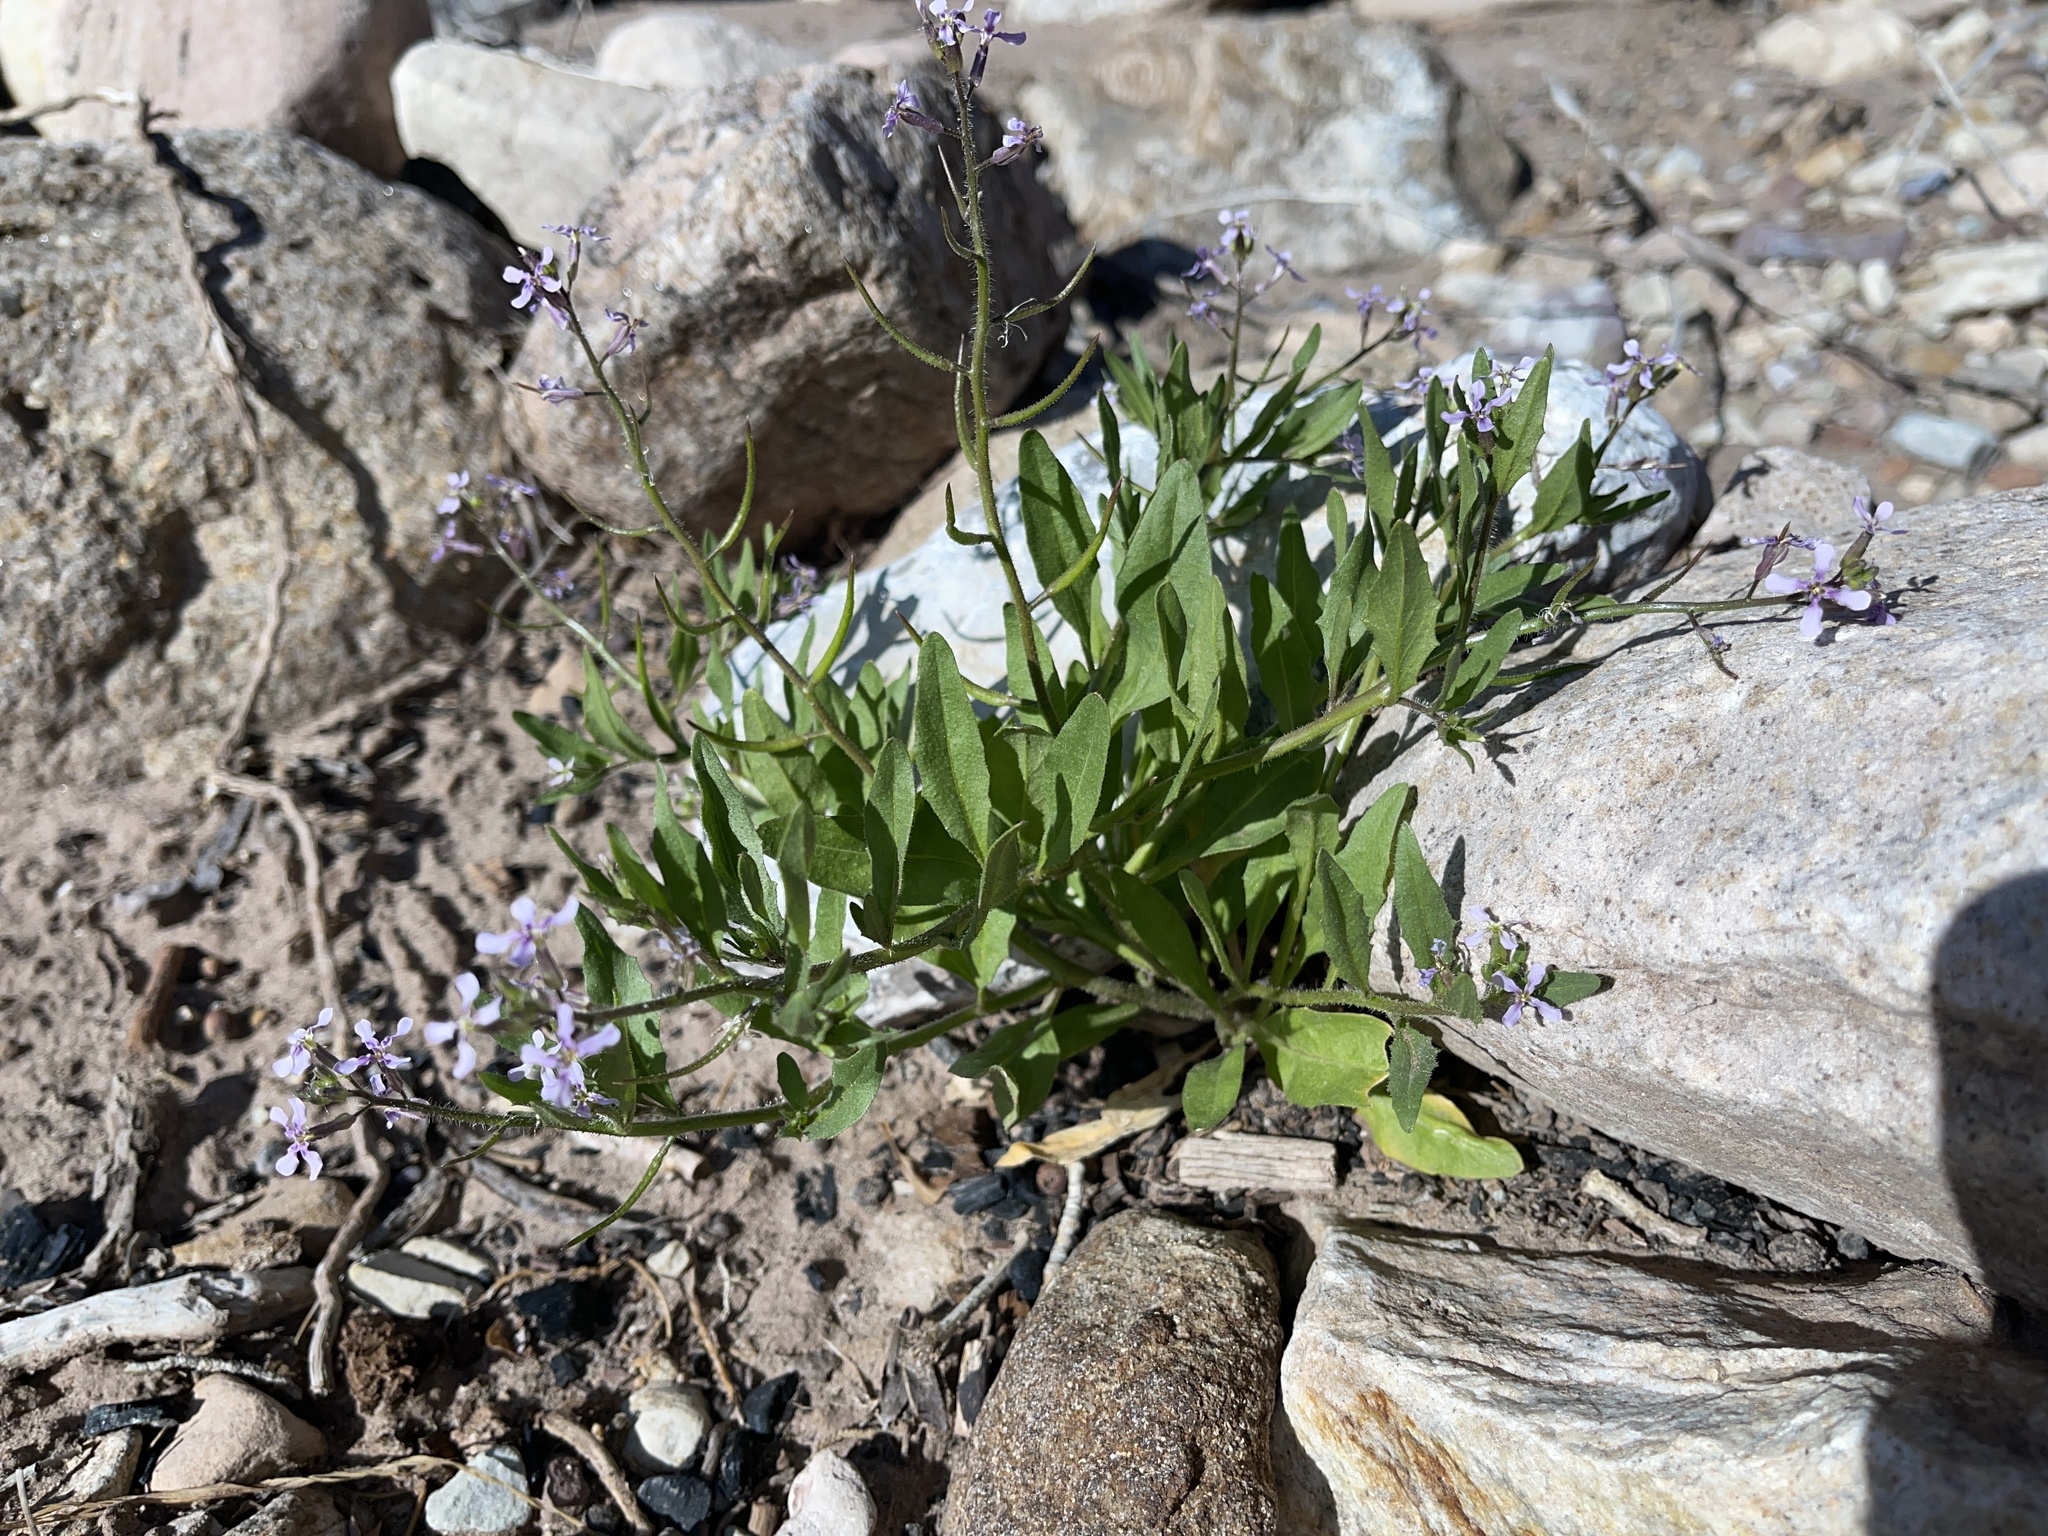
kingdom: Plantae
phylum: Tracheophyta
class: Magnoliopsida
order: Brassicales
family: Brassicaceae
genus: Chorispora
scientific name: Chorispora tenella
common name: Crossflower
